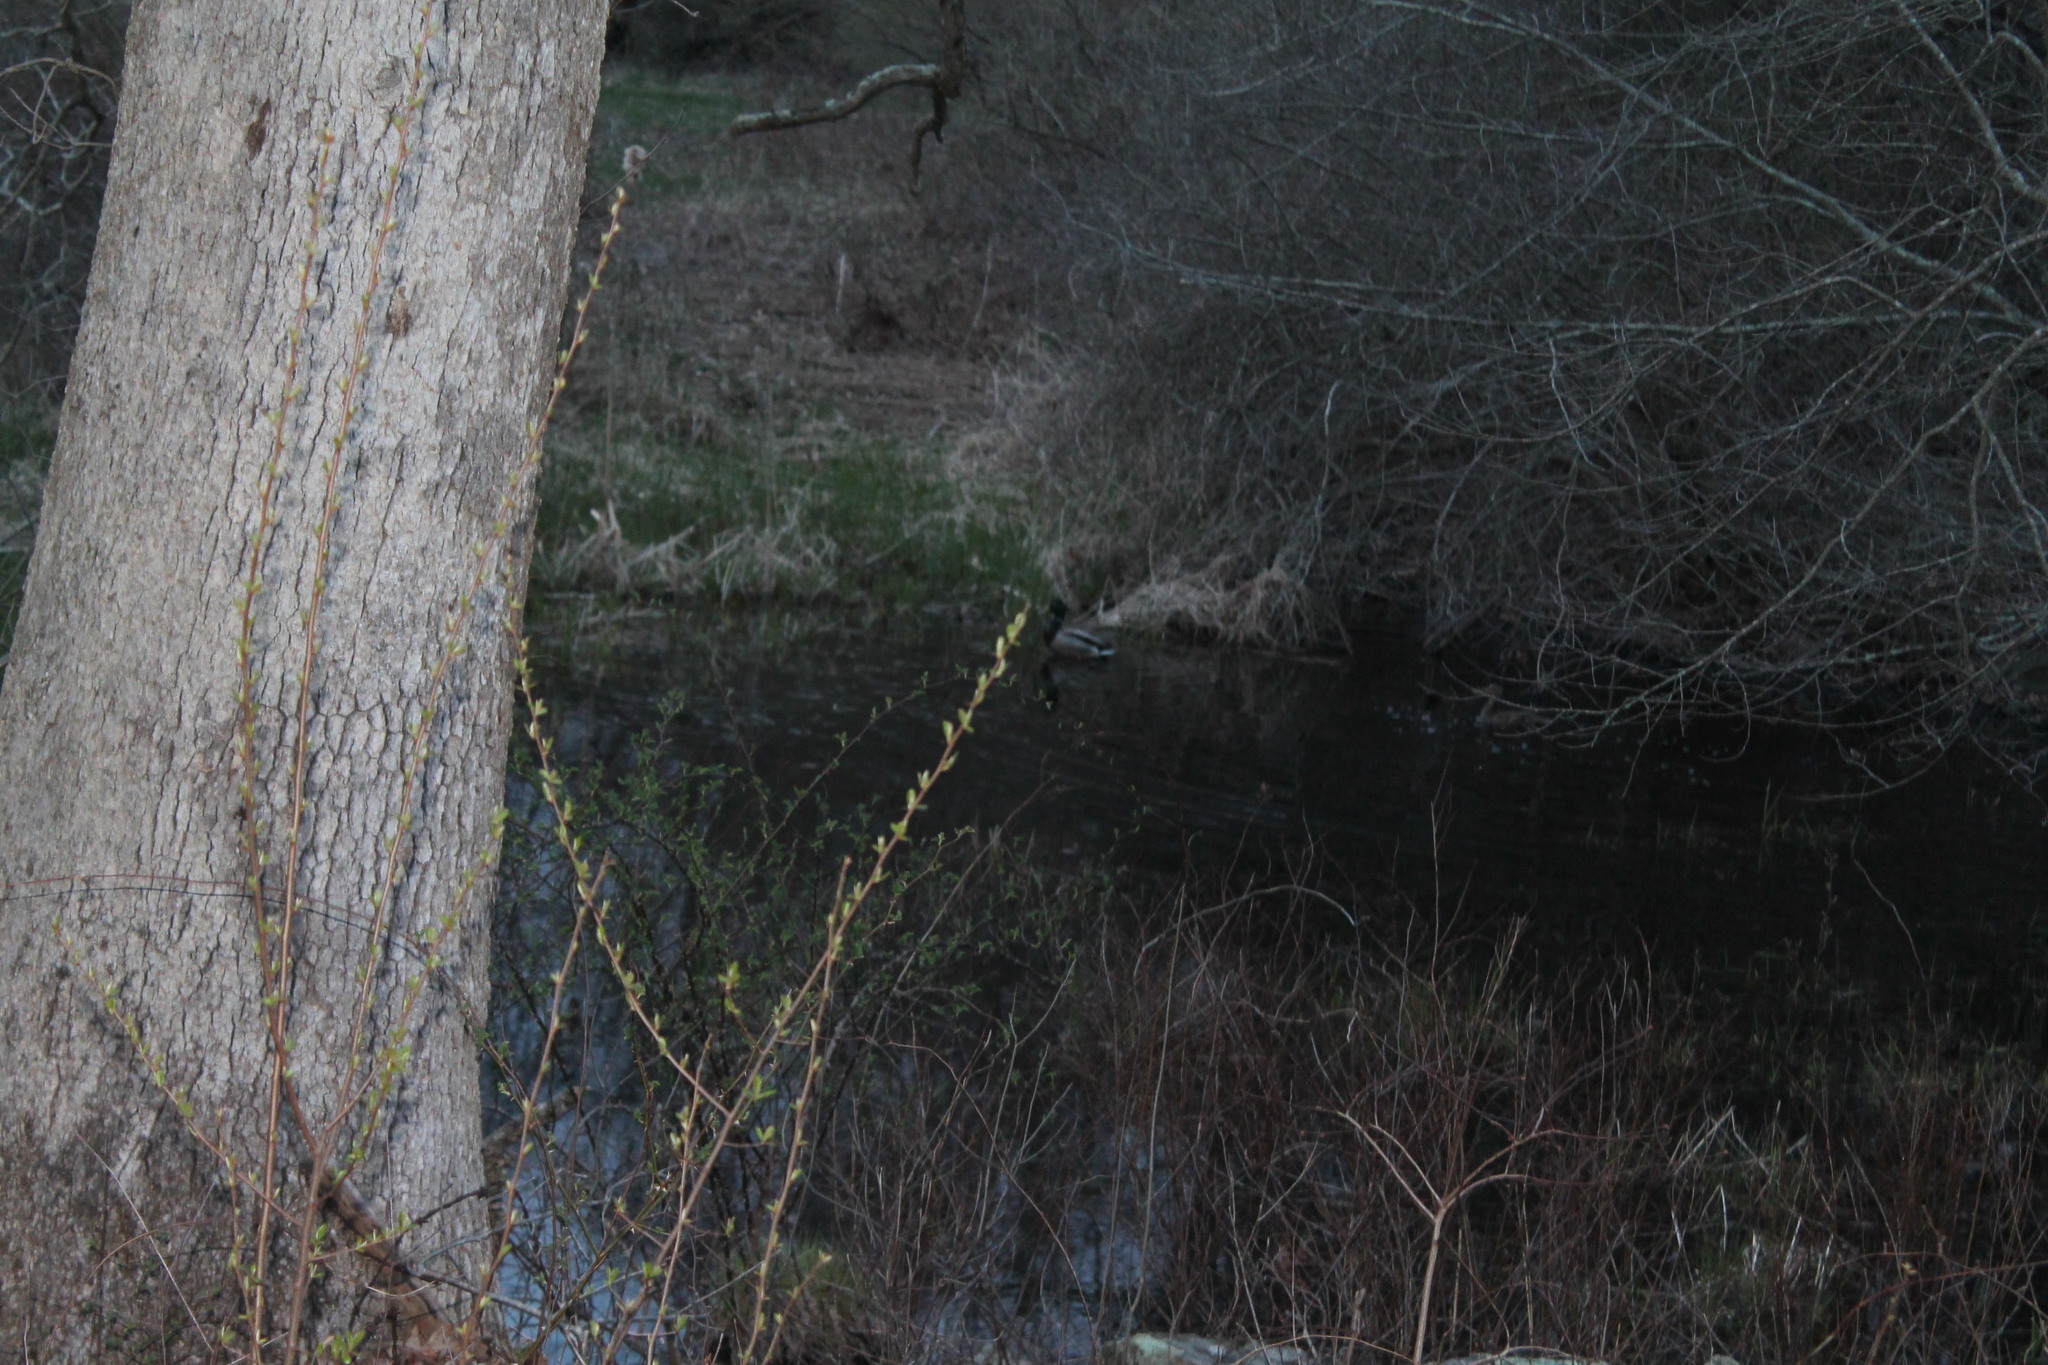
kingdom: Animalia
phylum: Chordata
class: Aves
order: Anseriformes
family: Anatidae
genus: Anas
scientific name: Anas platyrhynchos
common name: Mallard
